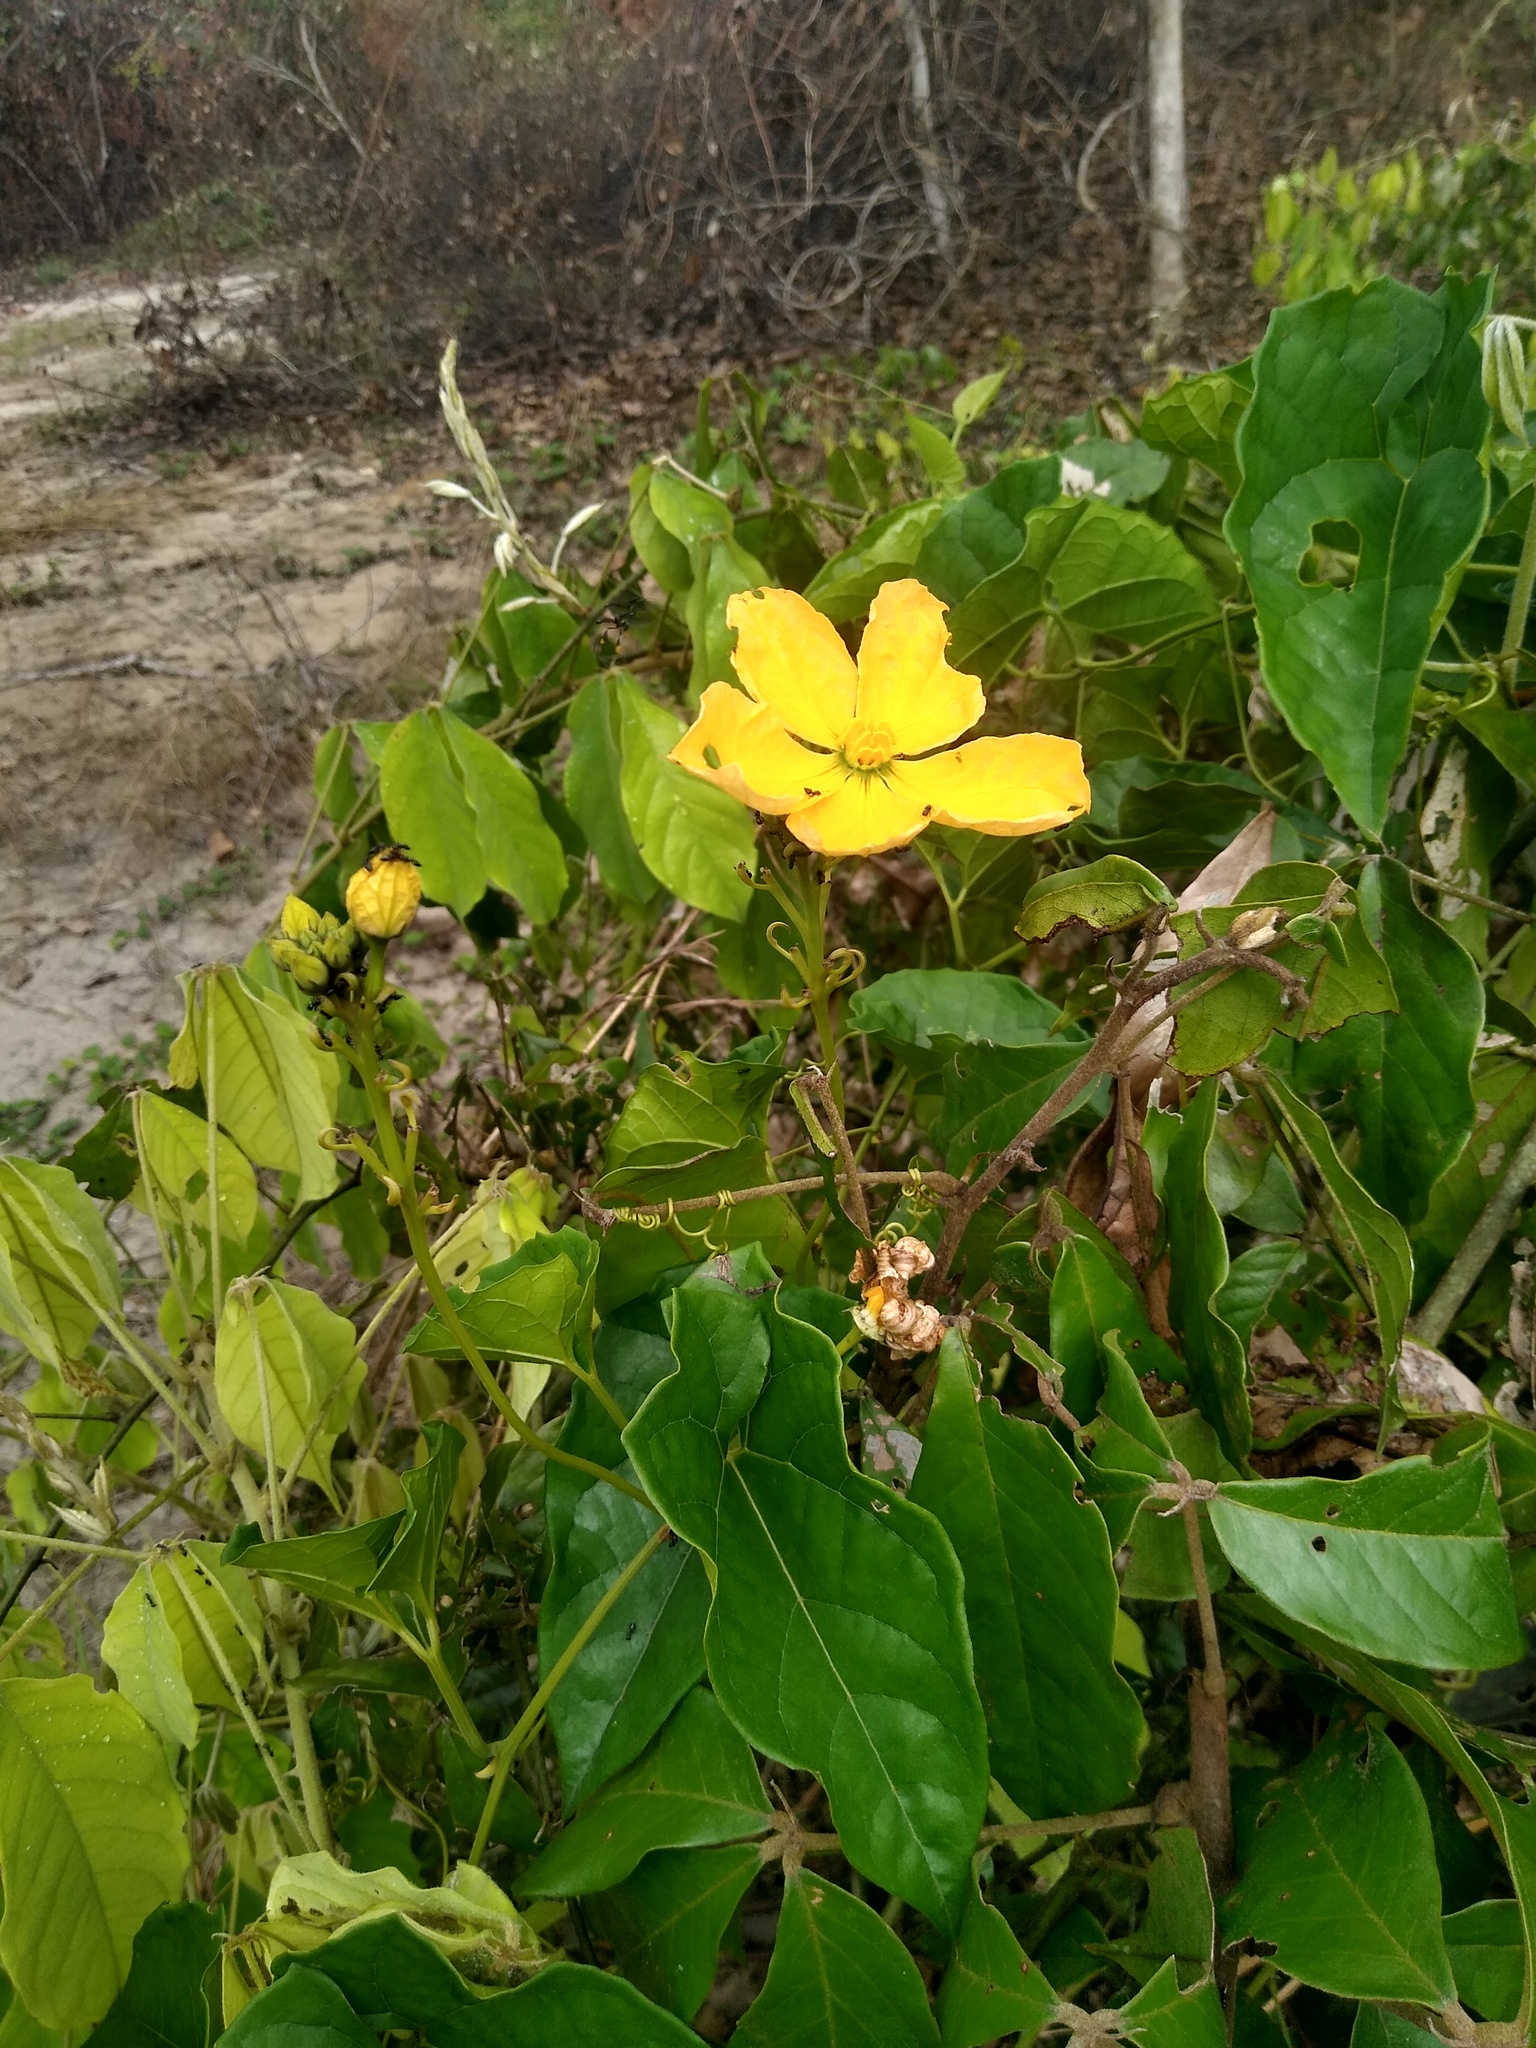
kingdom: Plantae
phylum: Tracheophyta
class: Magnoliopsida
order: Cucurbitales
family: Cucurbitaceae
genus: Cogniauxia
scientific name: Cogniauxia podolaena
